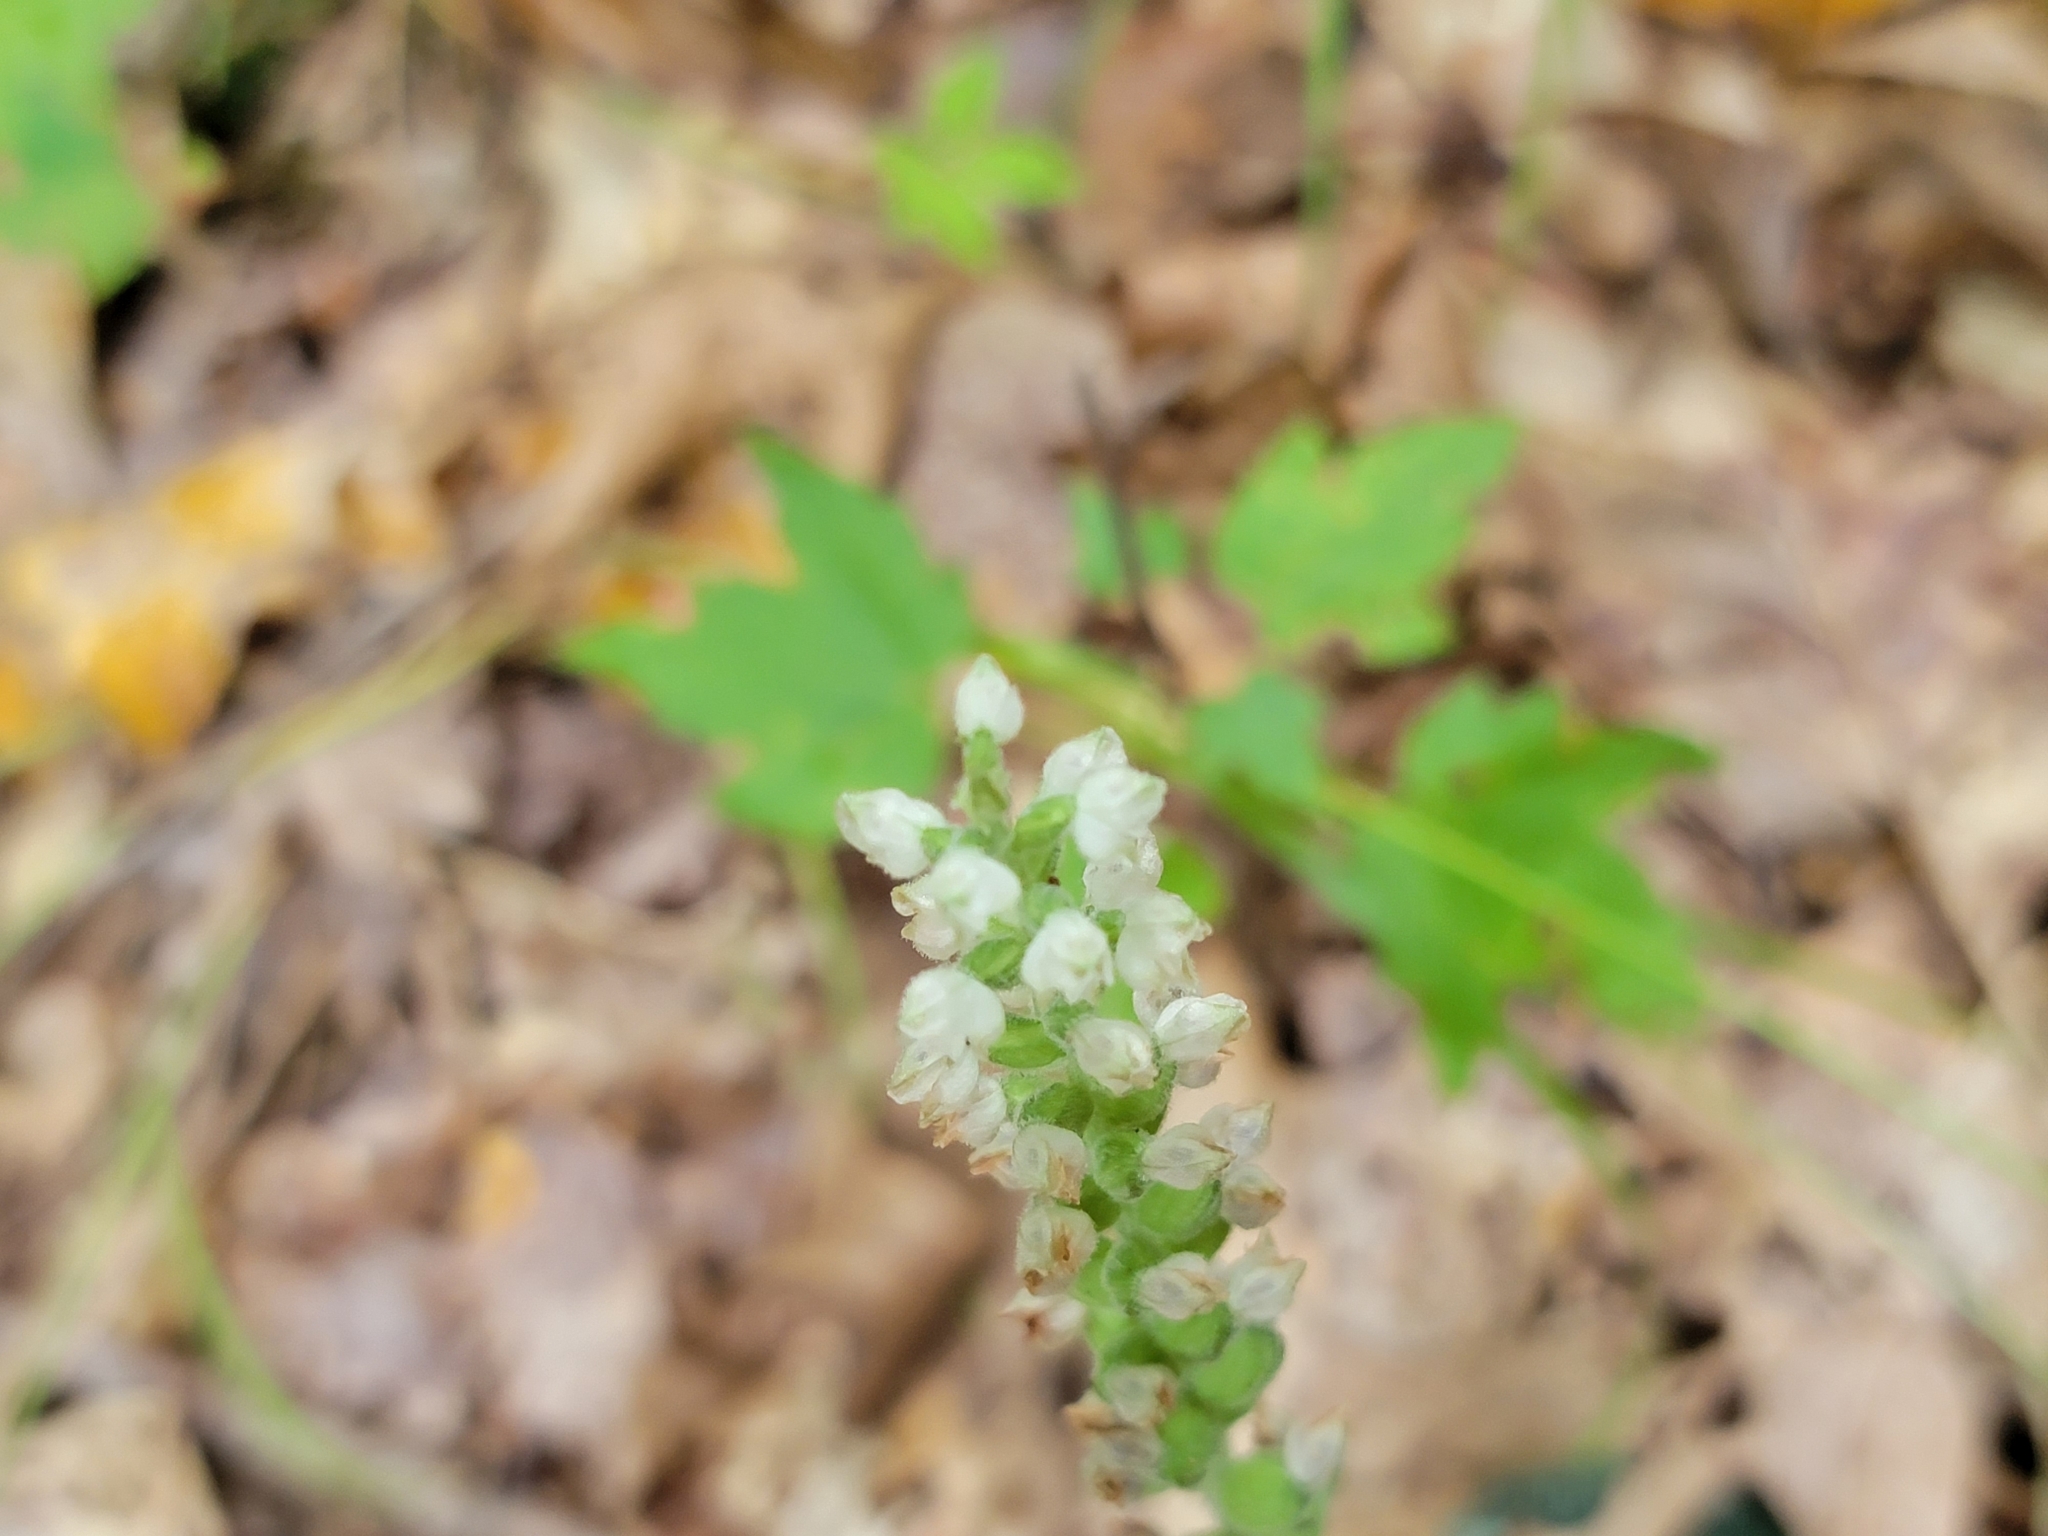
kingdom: Plantae
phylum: Tracheophyta
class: Liliopsida
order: Asparagales
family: Orchidaceae
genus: Goodyera
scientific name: Goodyera pubescens
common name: Downy rattlesnake-plantain
